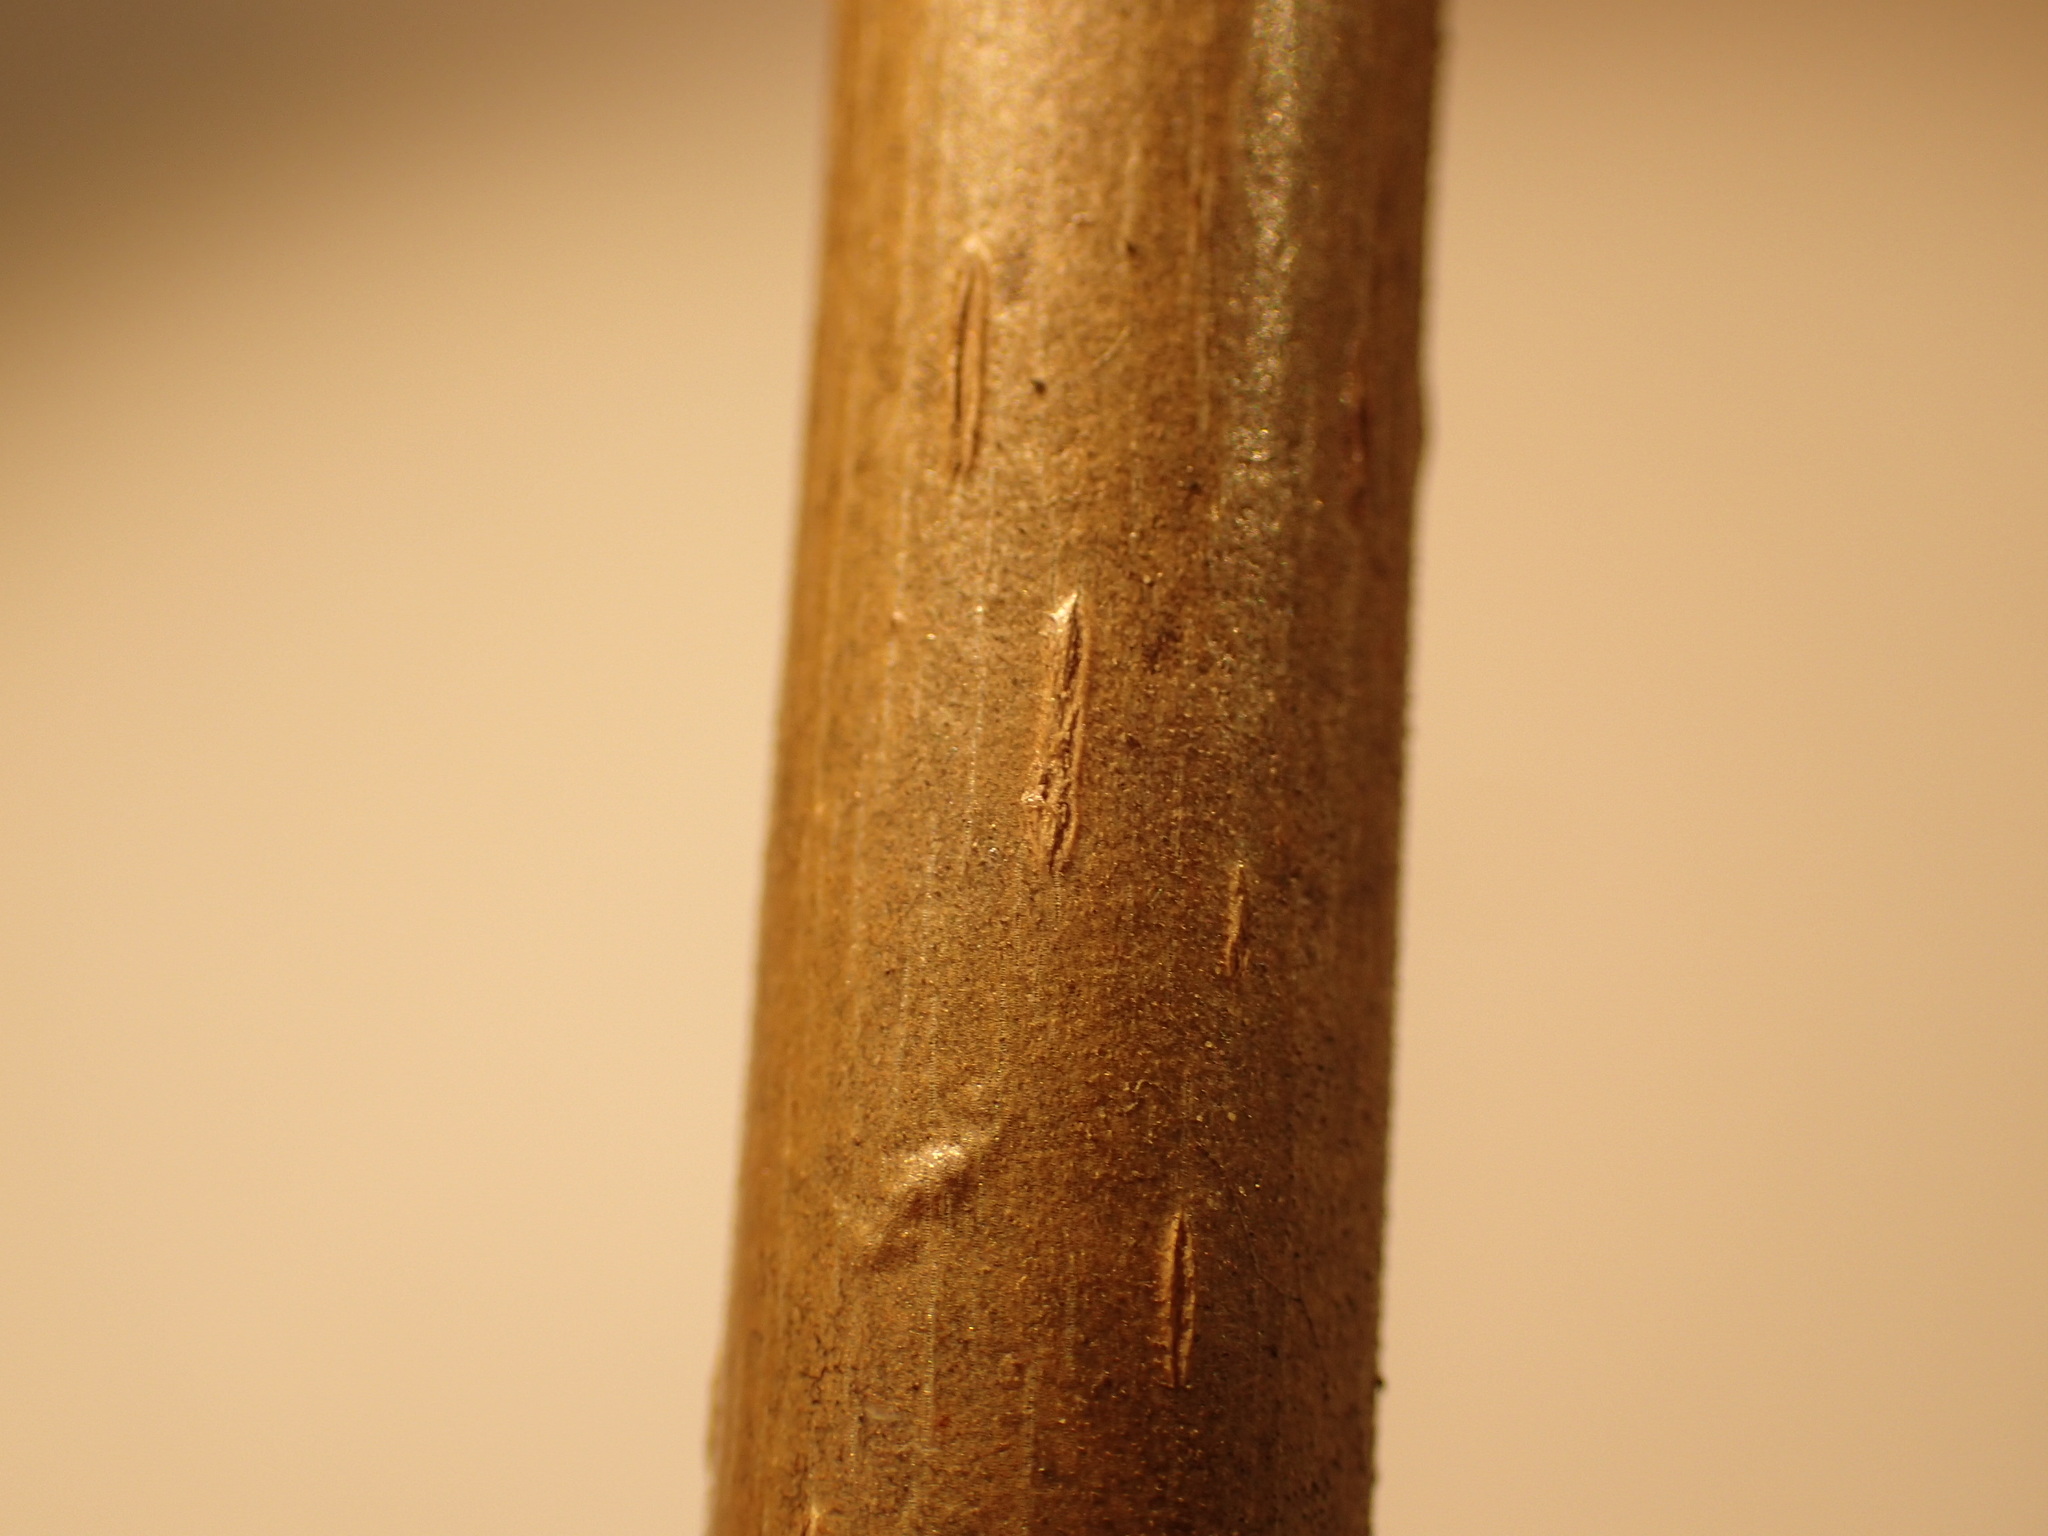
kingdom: Plantae
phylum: Tracheophyta
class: Magnoliopsida
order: Fagales
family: Juglandaceae
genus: Juglans
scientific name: Juglans bixbyi
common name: Bixby's walnut
